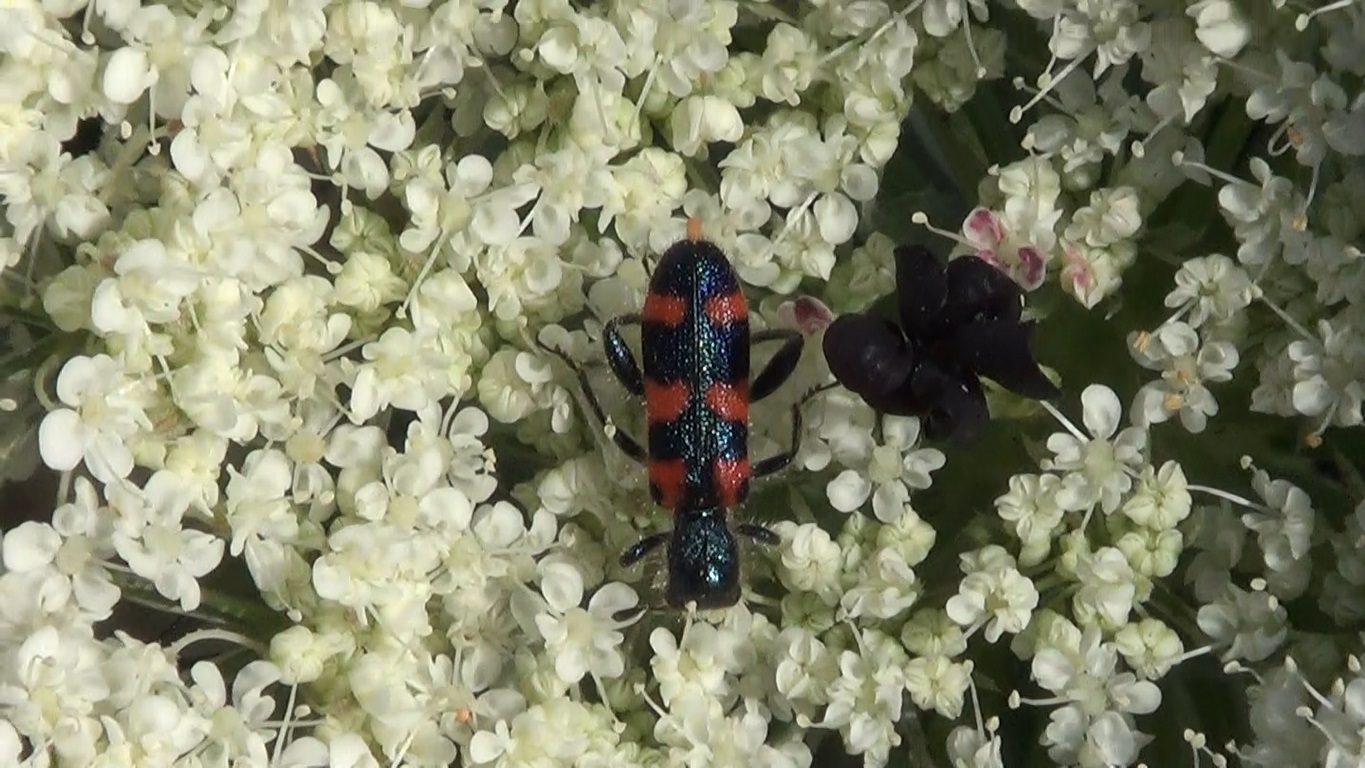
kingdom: Animalia
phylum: Arthropoda
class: Insecta
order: Coleoptera
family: Cleridae
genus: Trichodes
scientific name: Trichodes leucopsideus
